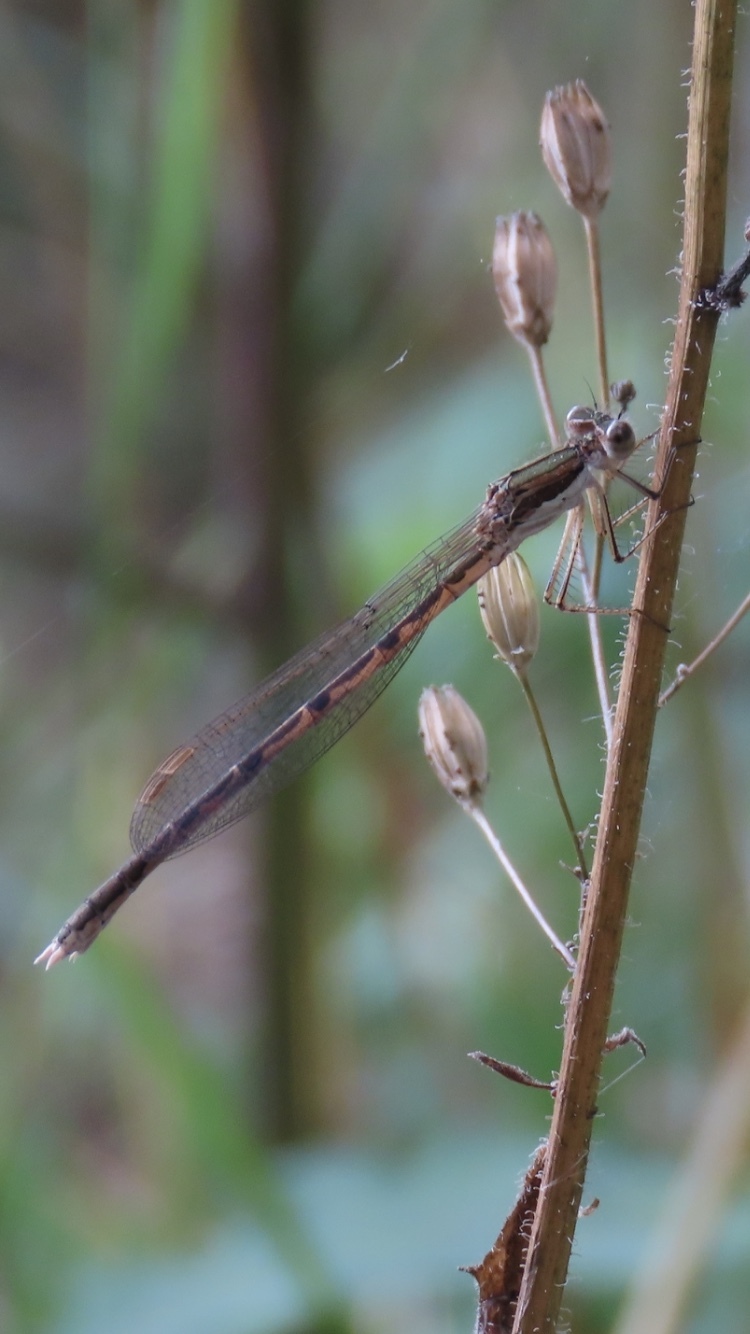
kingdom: Animalia
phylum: Arthropoda
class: Insecta
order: Odonata
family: Lestidae
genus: Sympecma
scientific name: Sympecma fusca
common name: Common winter damsel
